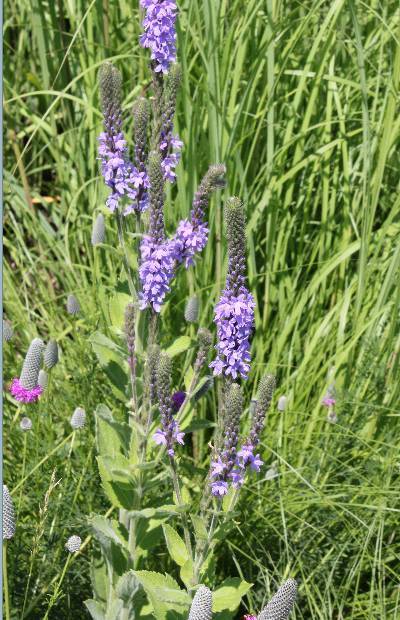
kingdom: Plantae
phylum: Tracheophyta
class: Magnoliopsida
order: Lamiales
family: Verbenaceae
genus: Verbena
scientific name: Verbena stricta
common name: Hoary vervain
